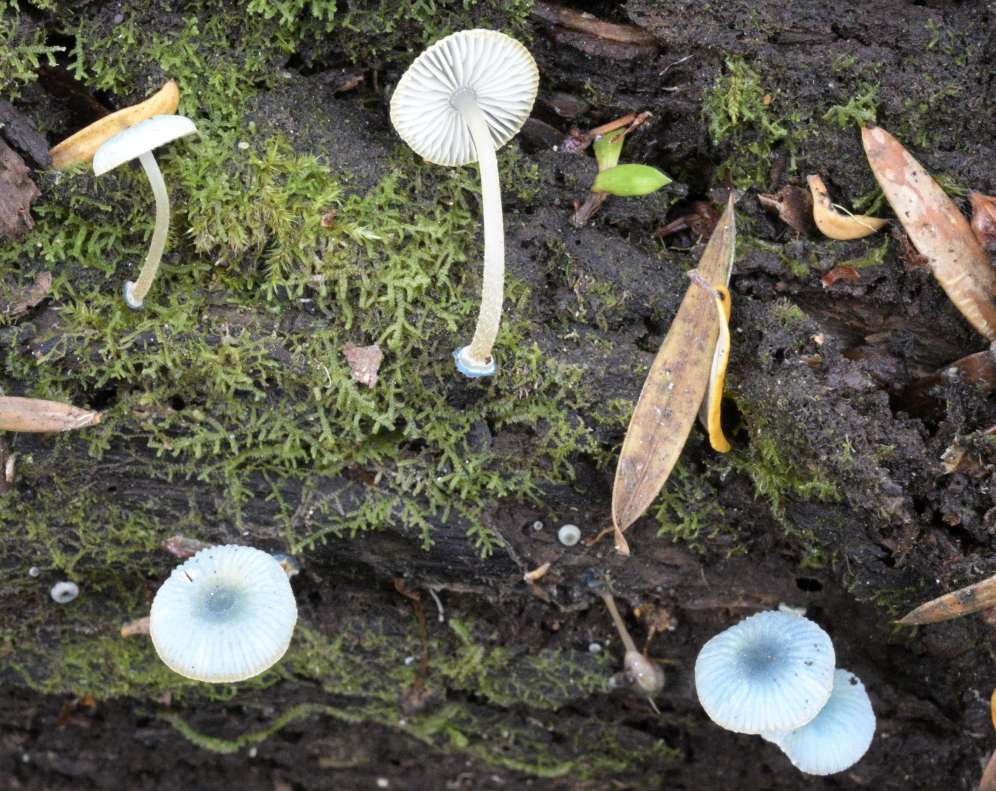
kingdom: Fungi
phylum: Basidiomycota
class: Agaricomycetes
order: Agaricales
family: Mycenaceae
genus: Mycena
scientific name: Mycena interrupta
